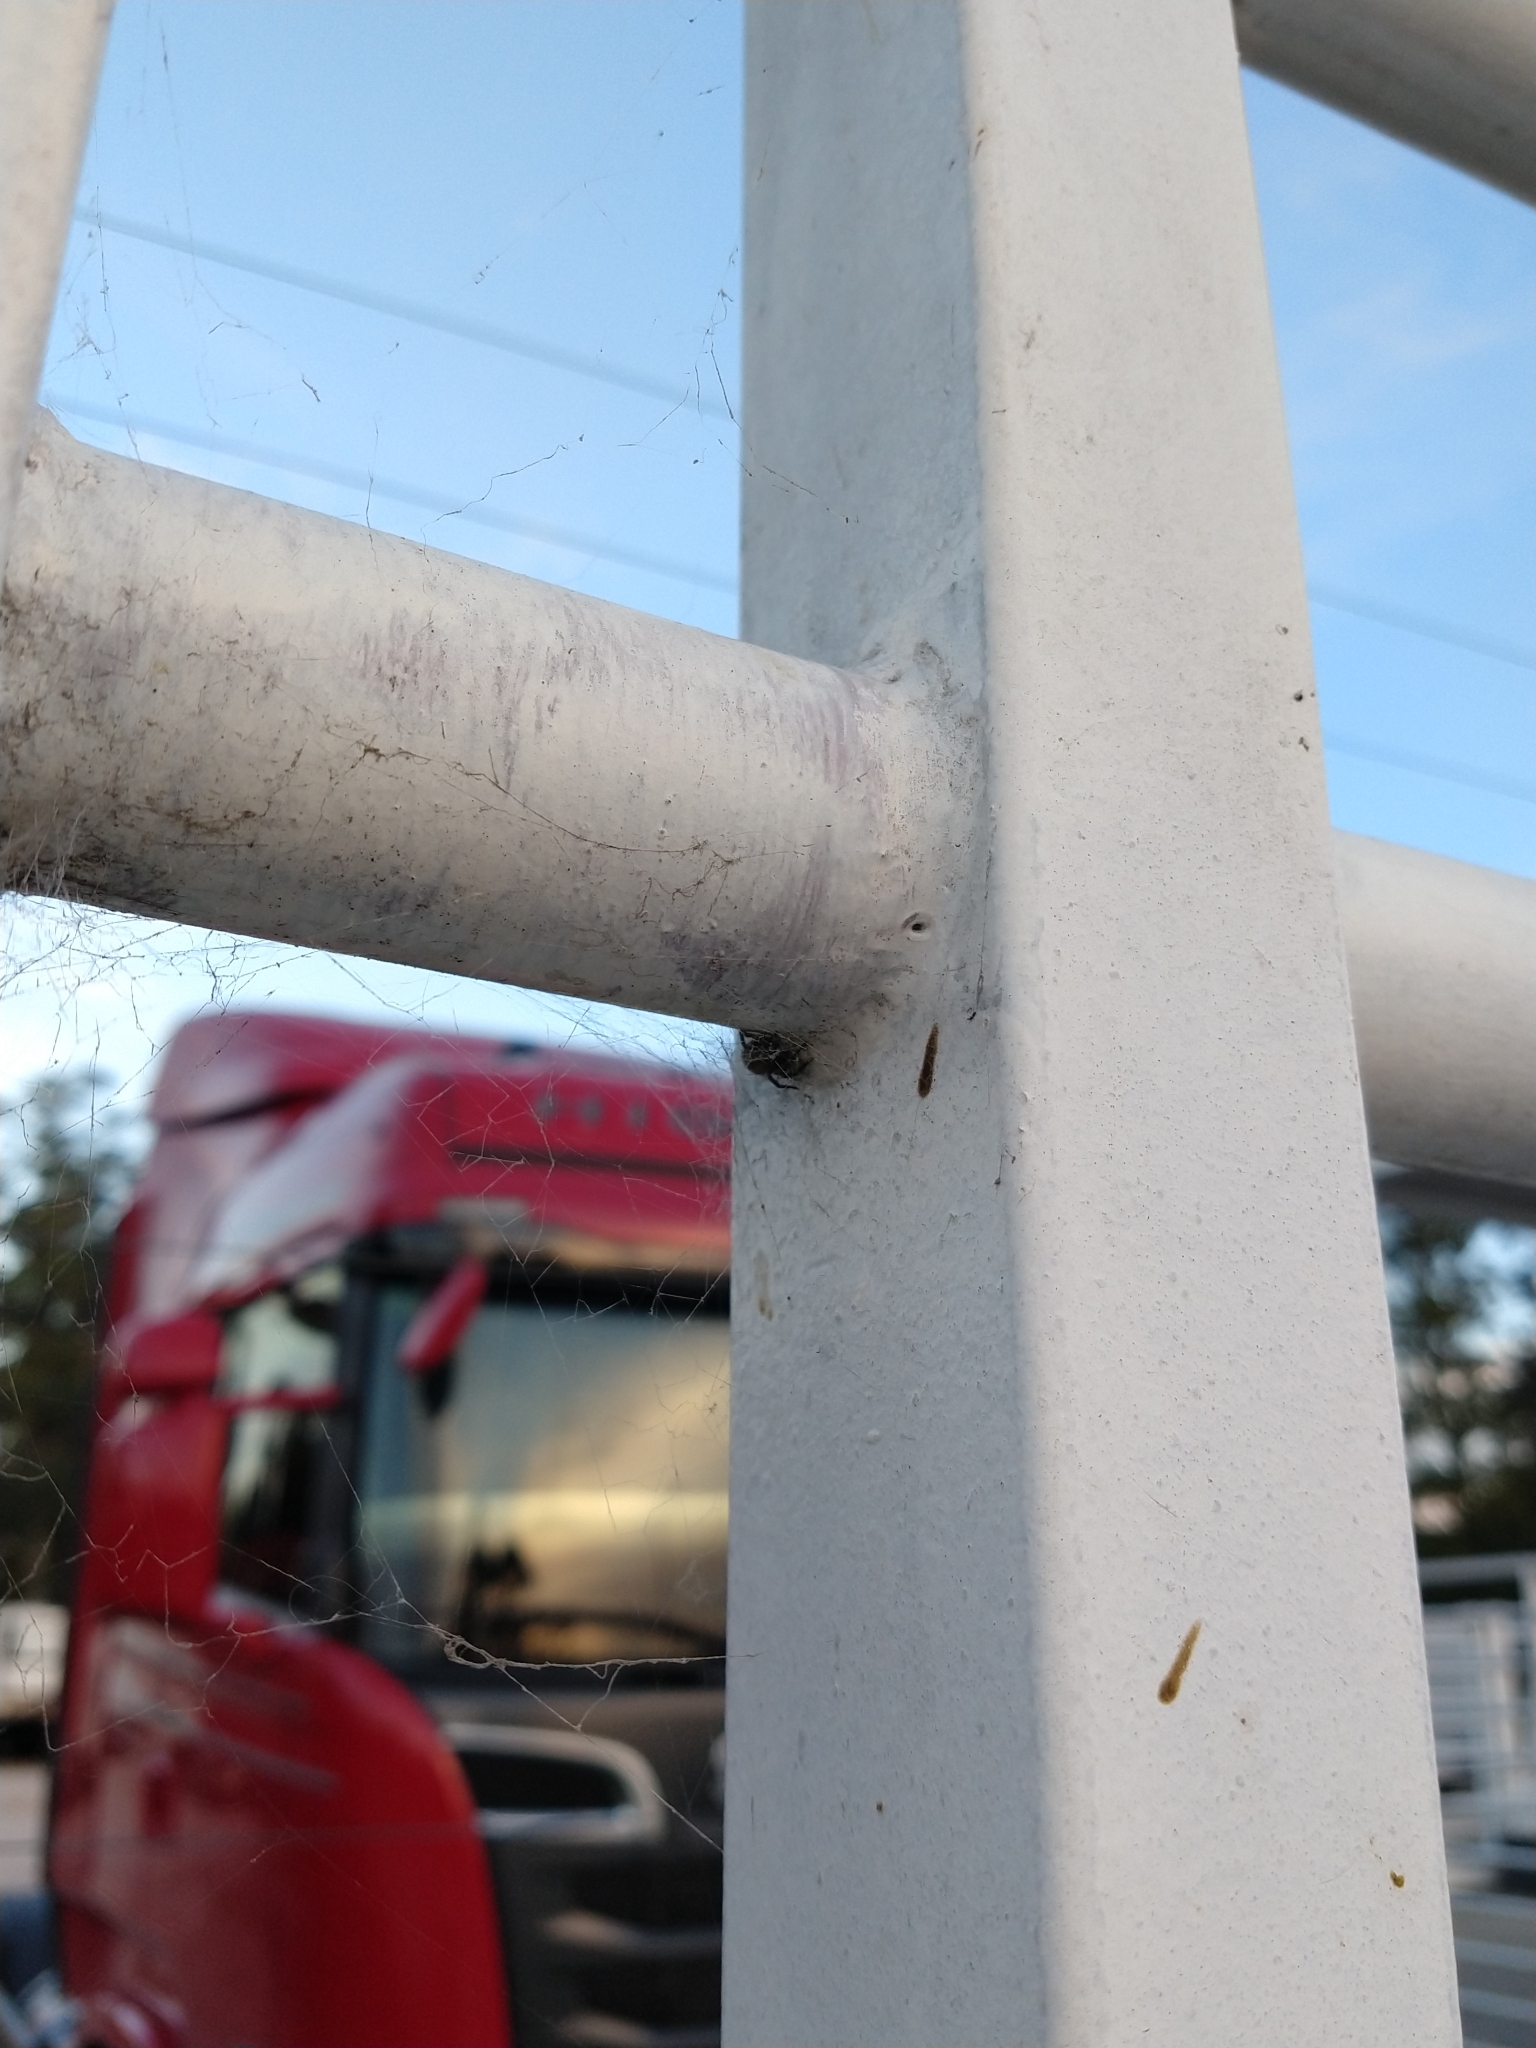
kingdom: Animalia
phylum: Arthropoda
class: Arachnida
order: Araneae
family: Desidae
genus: Badumna
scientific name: Badumna longinqua
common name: Gray house spider
